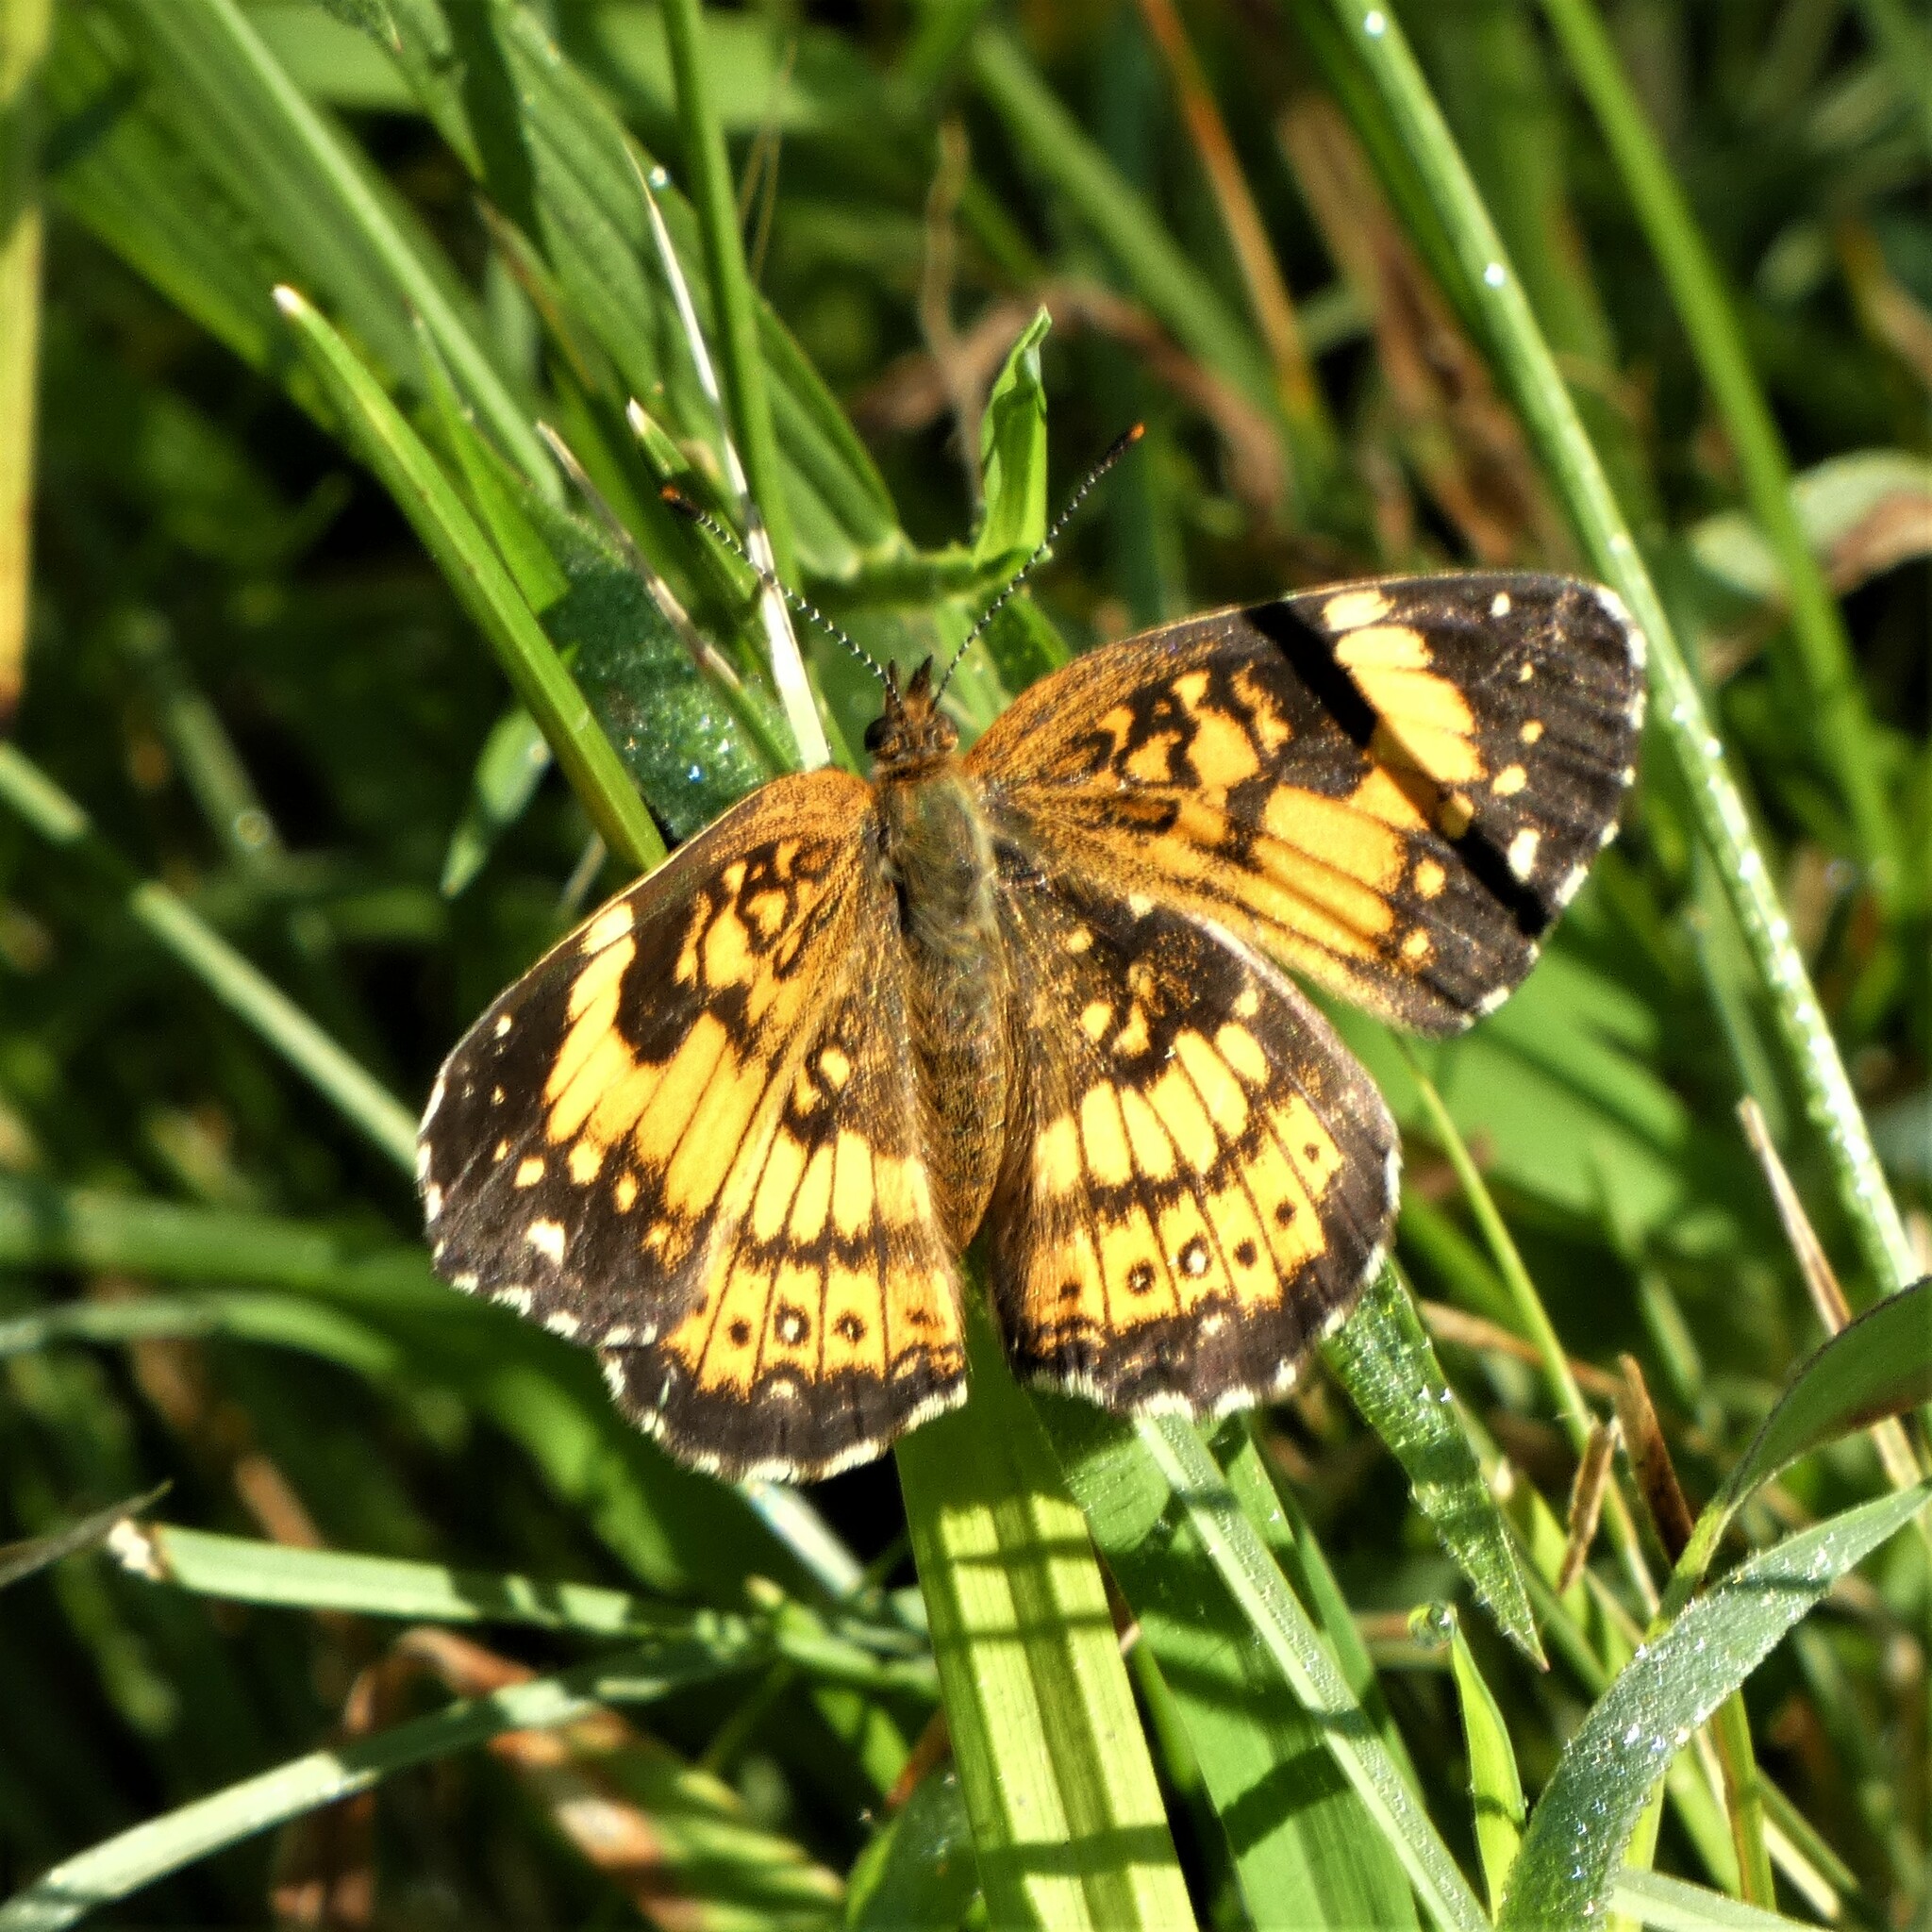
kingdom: Animalia
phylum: Arthropoda
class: Insecta
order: Lepidoptera
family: Nymphalidae
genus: Chlosyne
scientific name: Chlosyne nycteis
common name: Silvery checkerspot
